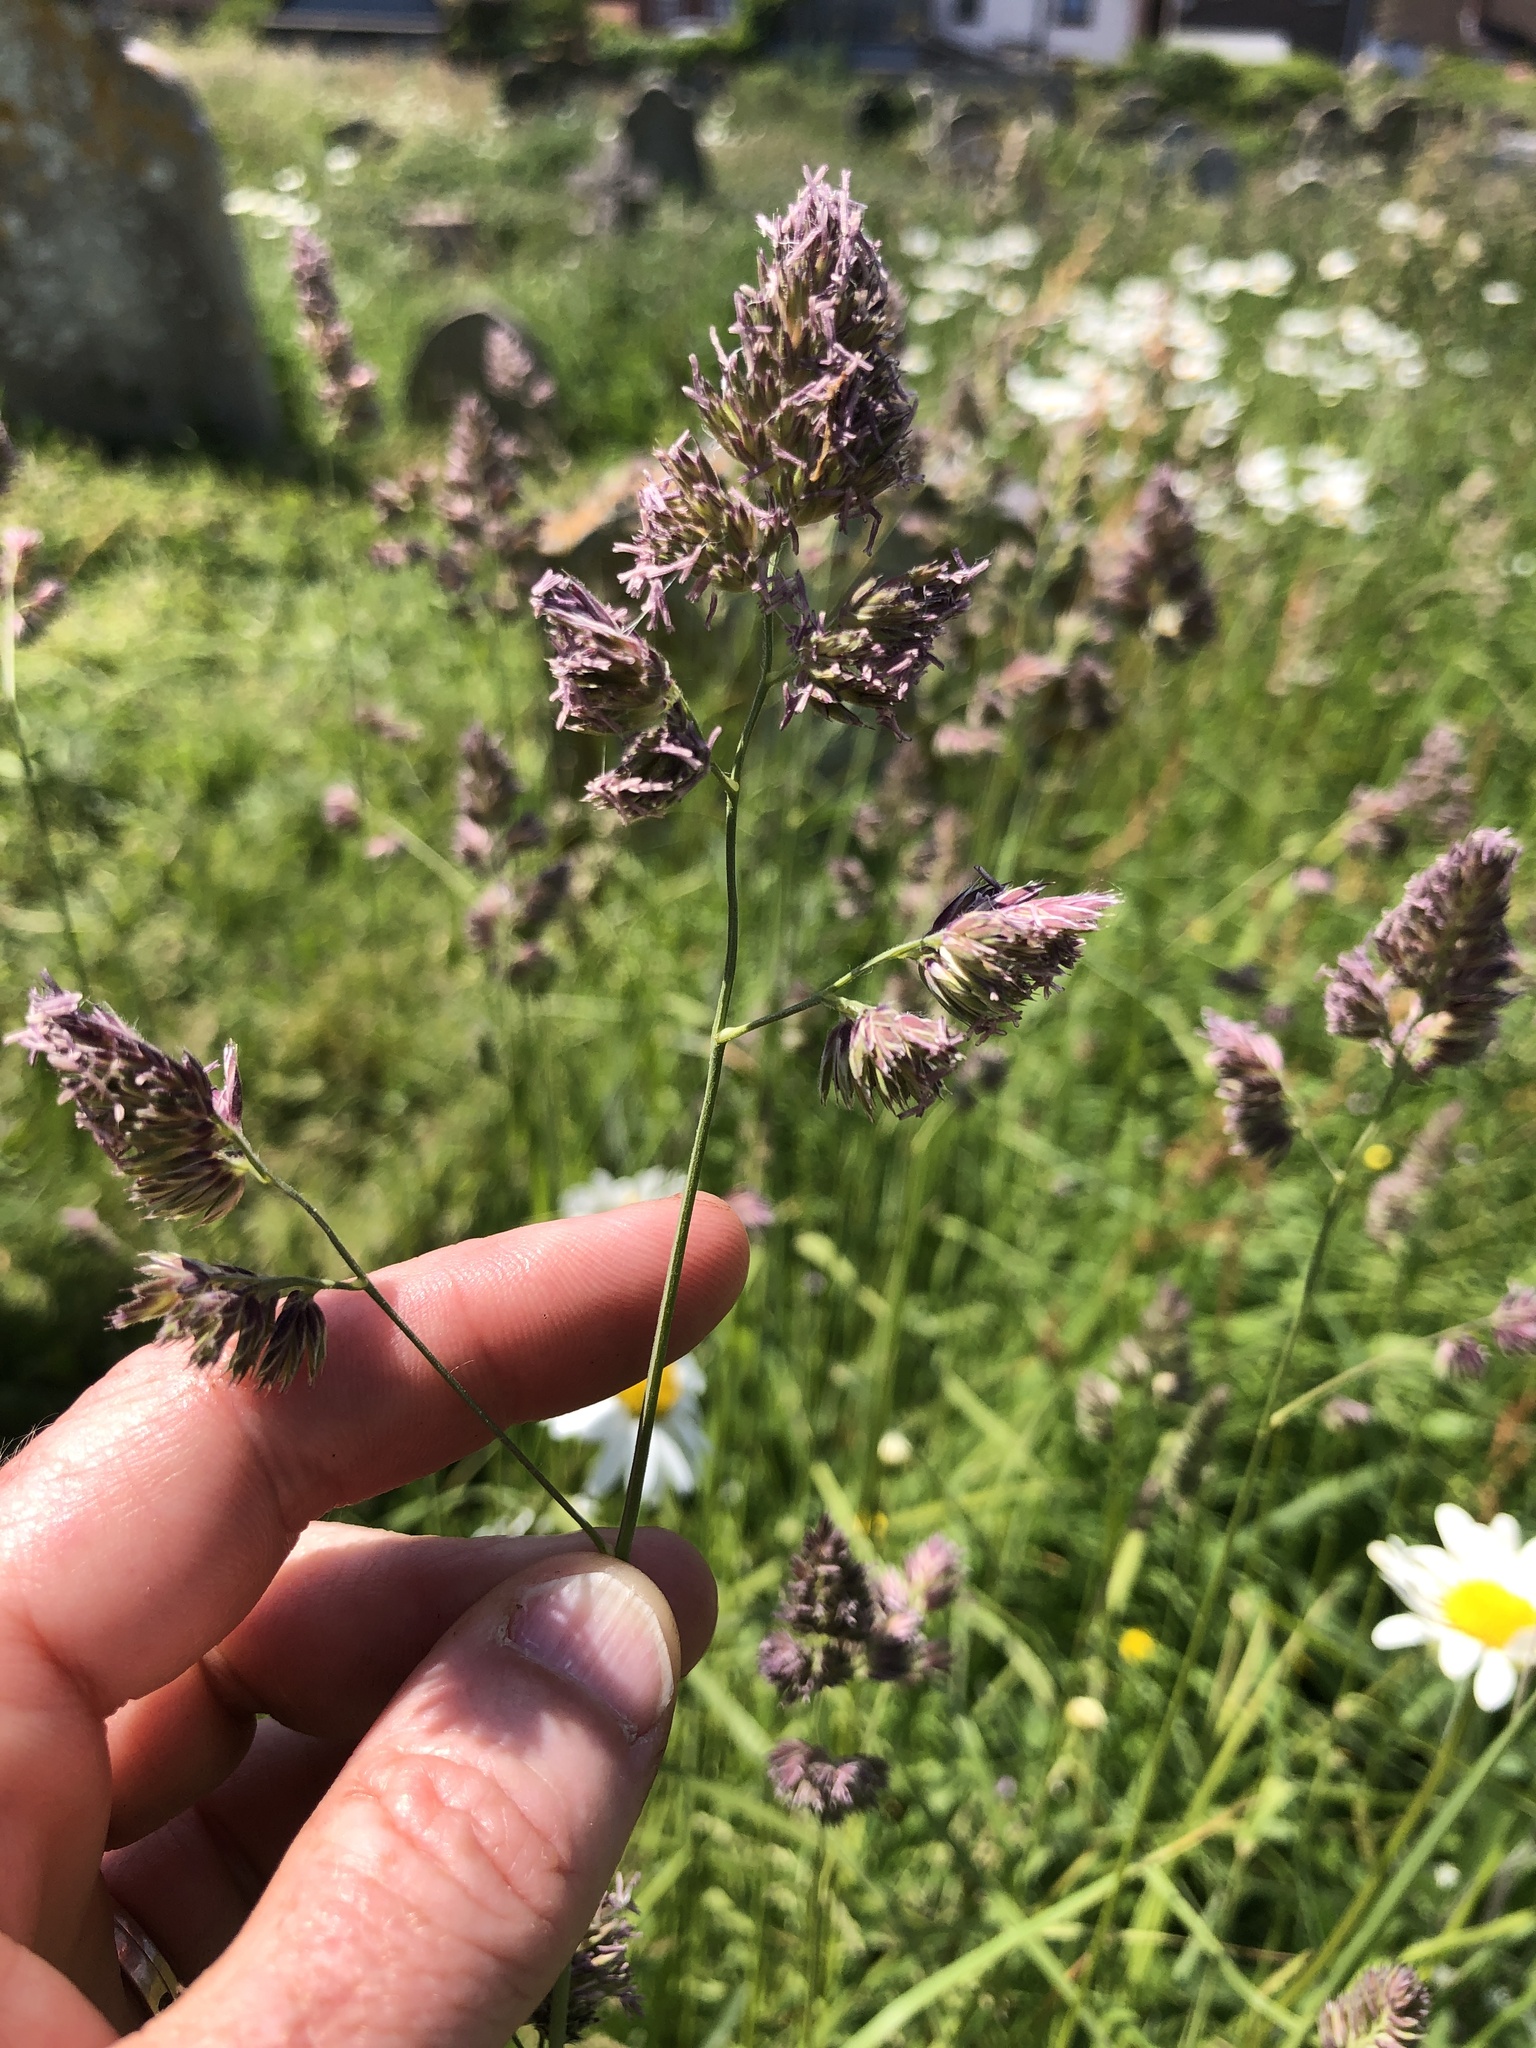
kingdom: Plantae
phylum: Tracheophyta
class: Liliopsida
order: Poales
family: Poaceae
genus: Dactylis
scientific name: Dactylis glomerata
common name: Orchardgrass
